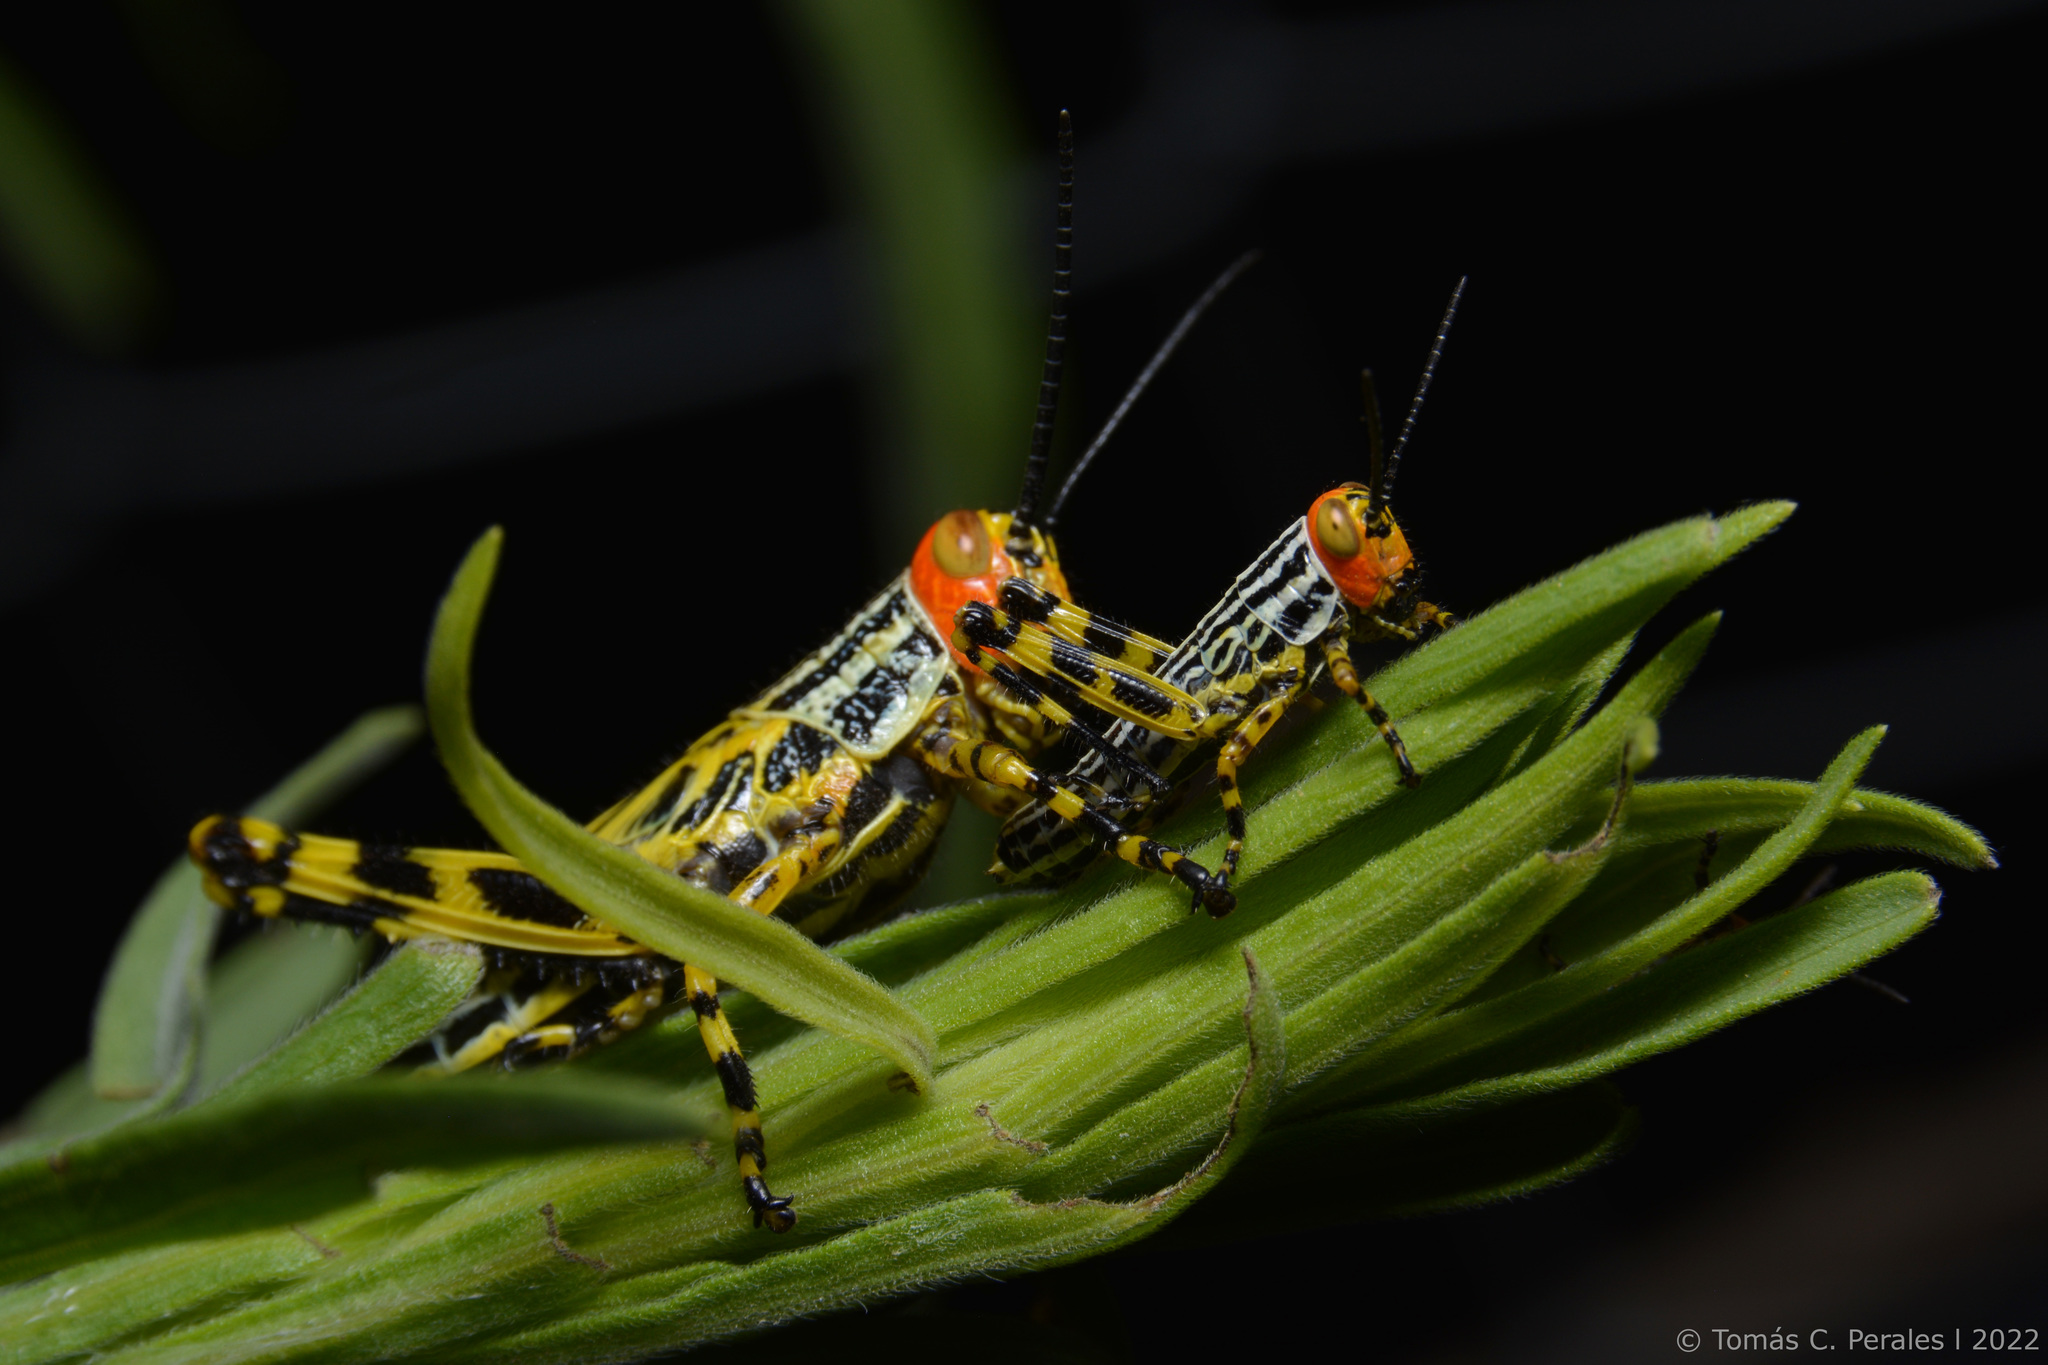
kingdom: Animalia
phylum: Arthropoda
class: Insecta
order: Orthoptera
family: Romaleidae
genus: Zoniopoda
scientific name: Zoniopoda tarsata
